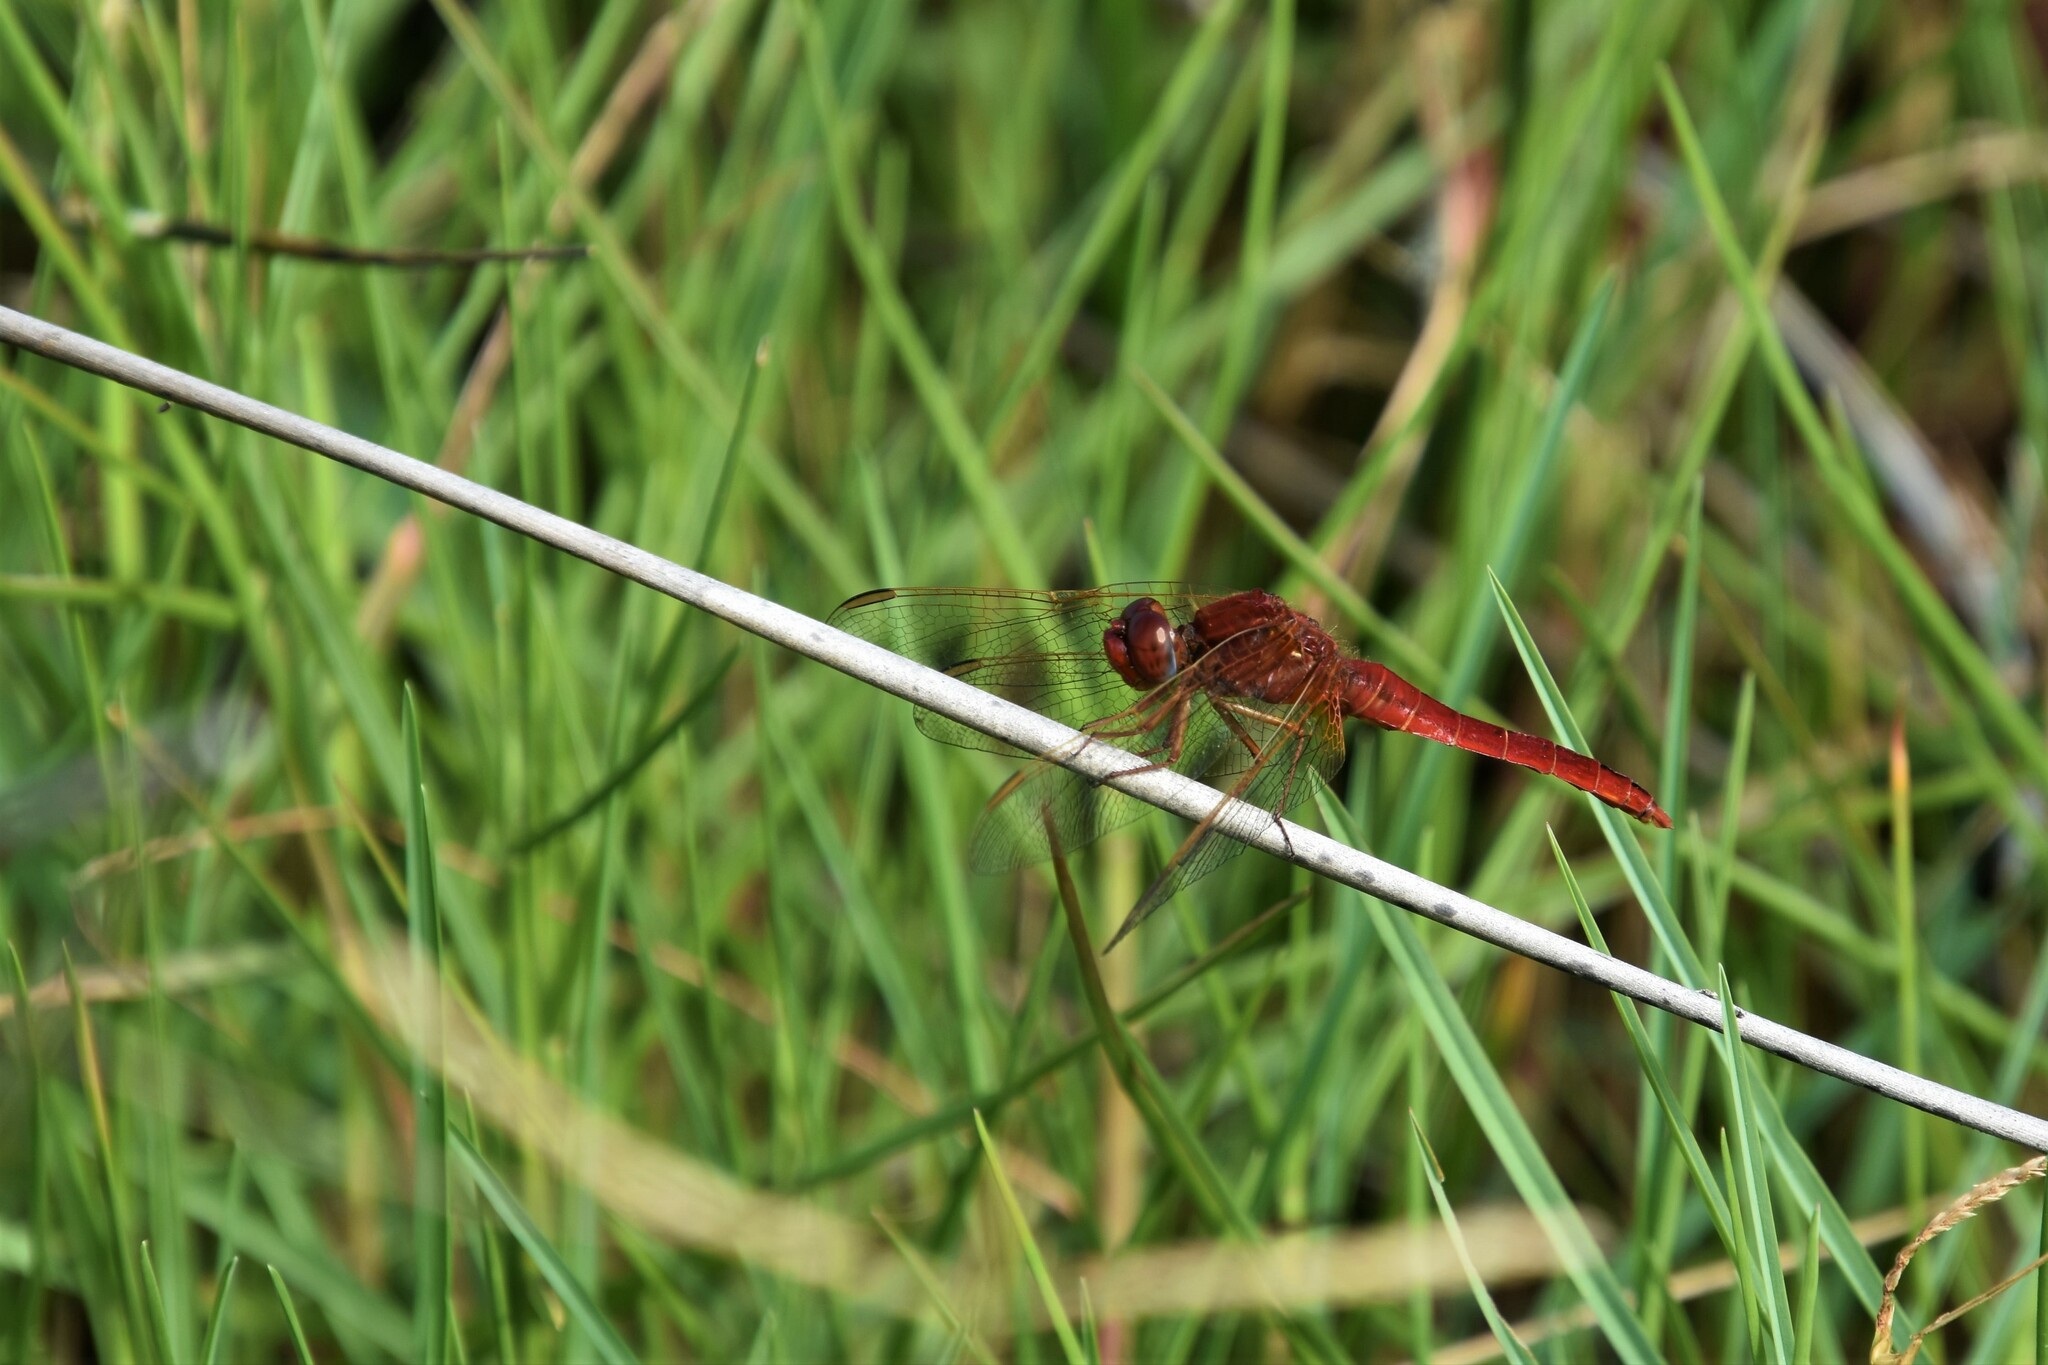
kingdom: Animalia
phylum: Arthropoda
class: Insecta
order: Odonata
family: Libellulidae
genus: Crocothemis
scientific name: Crocothemis erythraea
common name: Scarlet dragonfly
